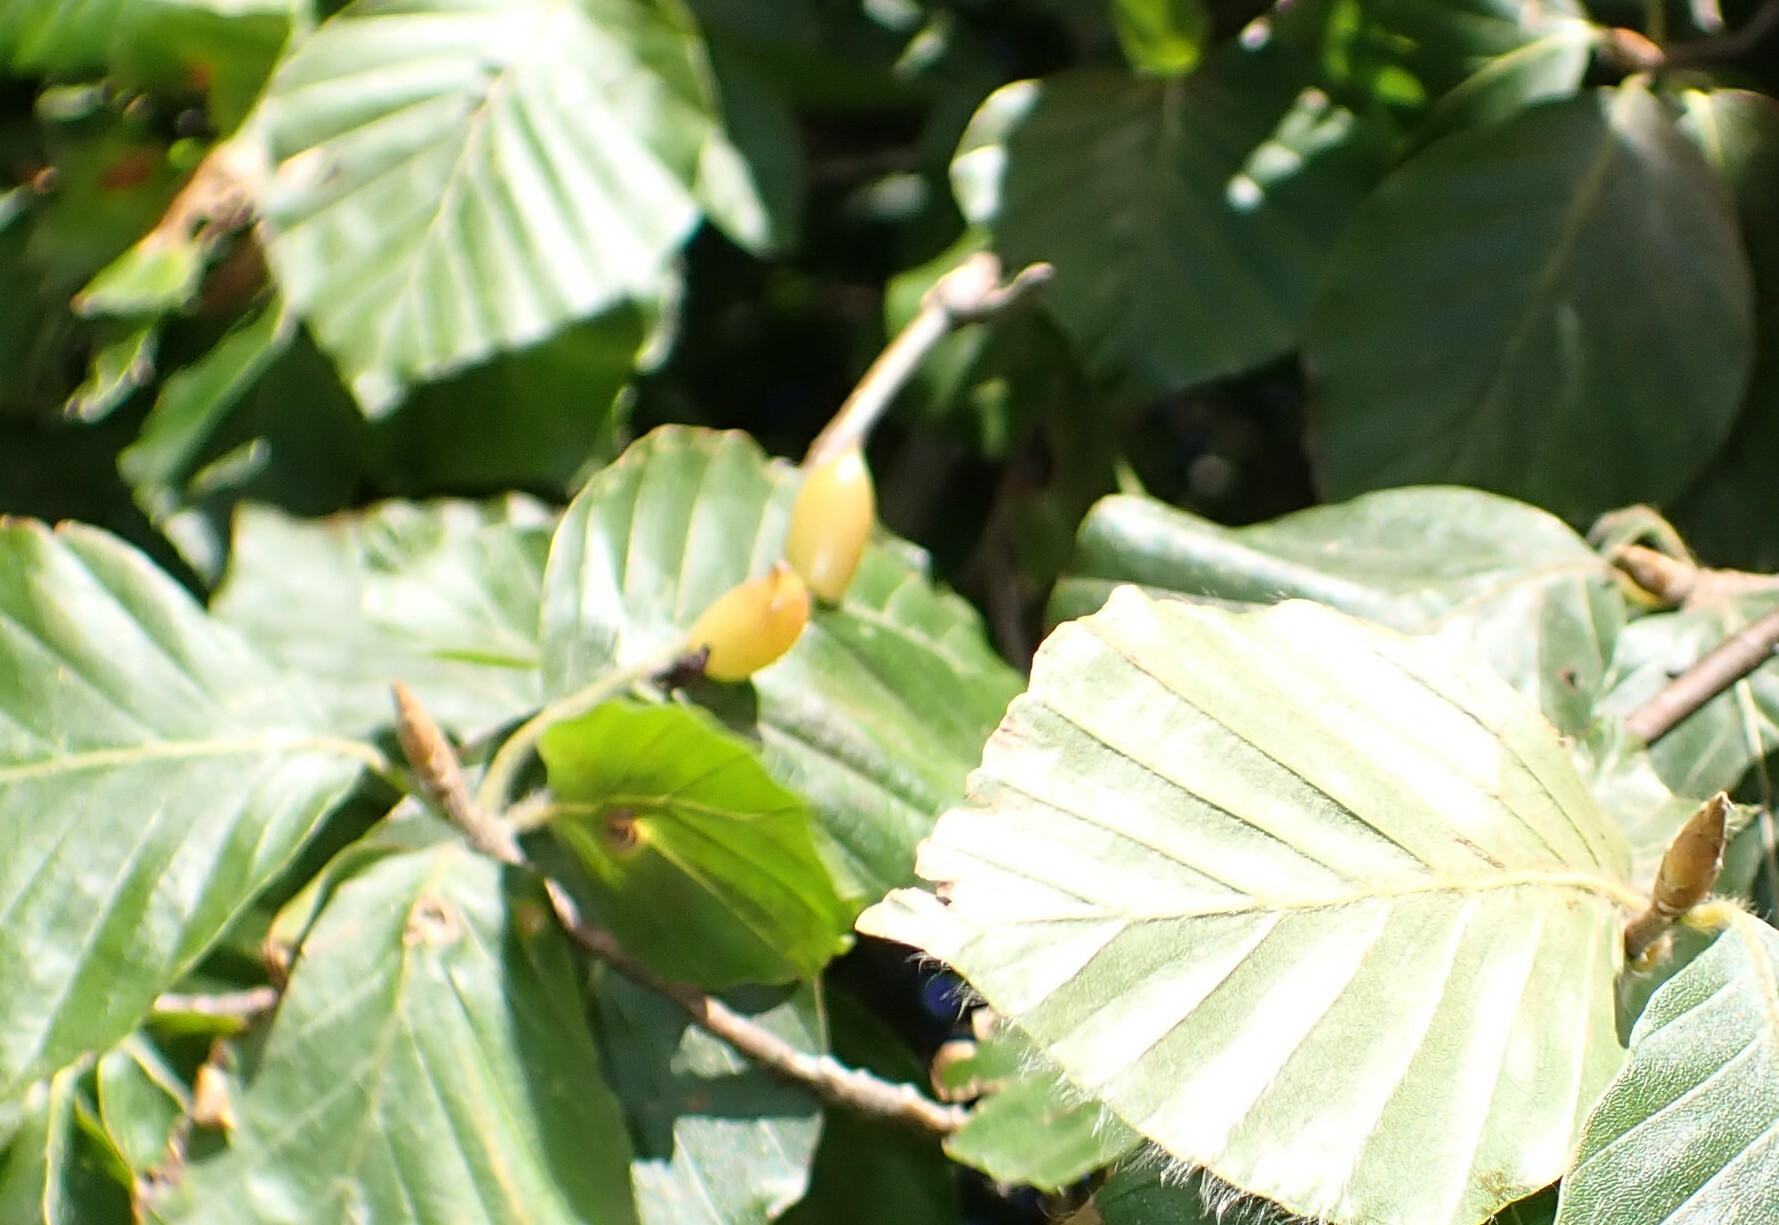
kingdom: Animalia
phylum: Arthropoda
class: Insecta
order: Diptera
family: Cecidomyiidae
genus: Mikiola
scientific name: Mikiola fagi
